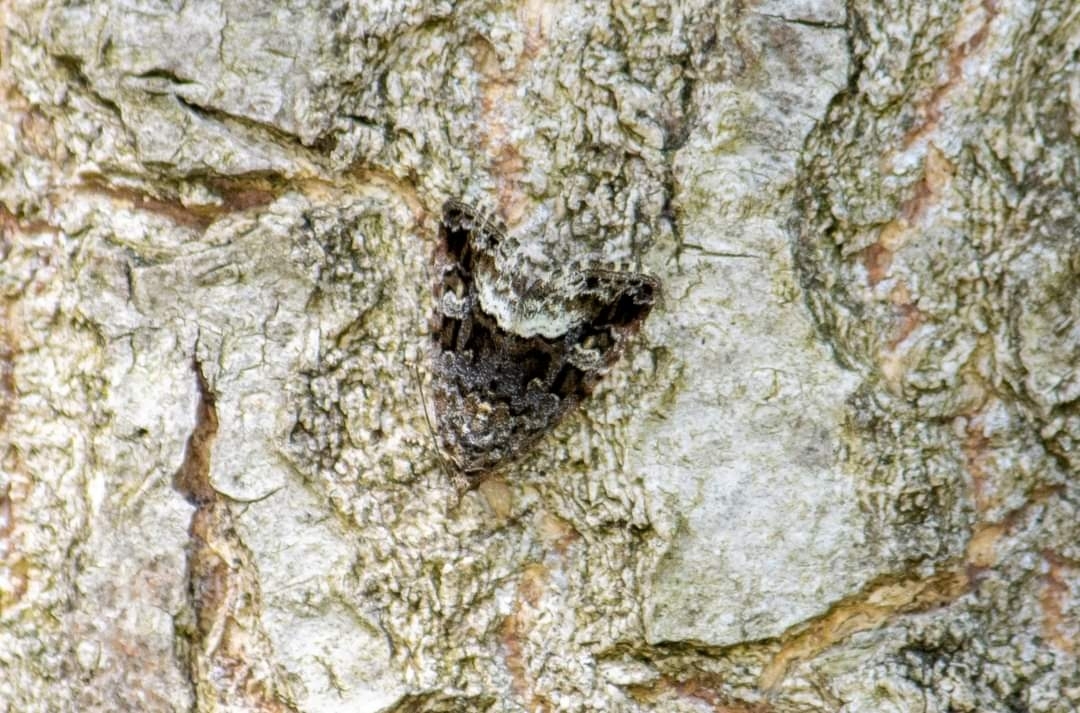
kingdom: Animalia
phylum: Arthropoda
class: Insecta
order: Lepidoptera
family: Noctuidae
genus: Deltote
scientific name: Deltote pygarga
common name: Marbled white spot
